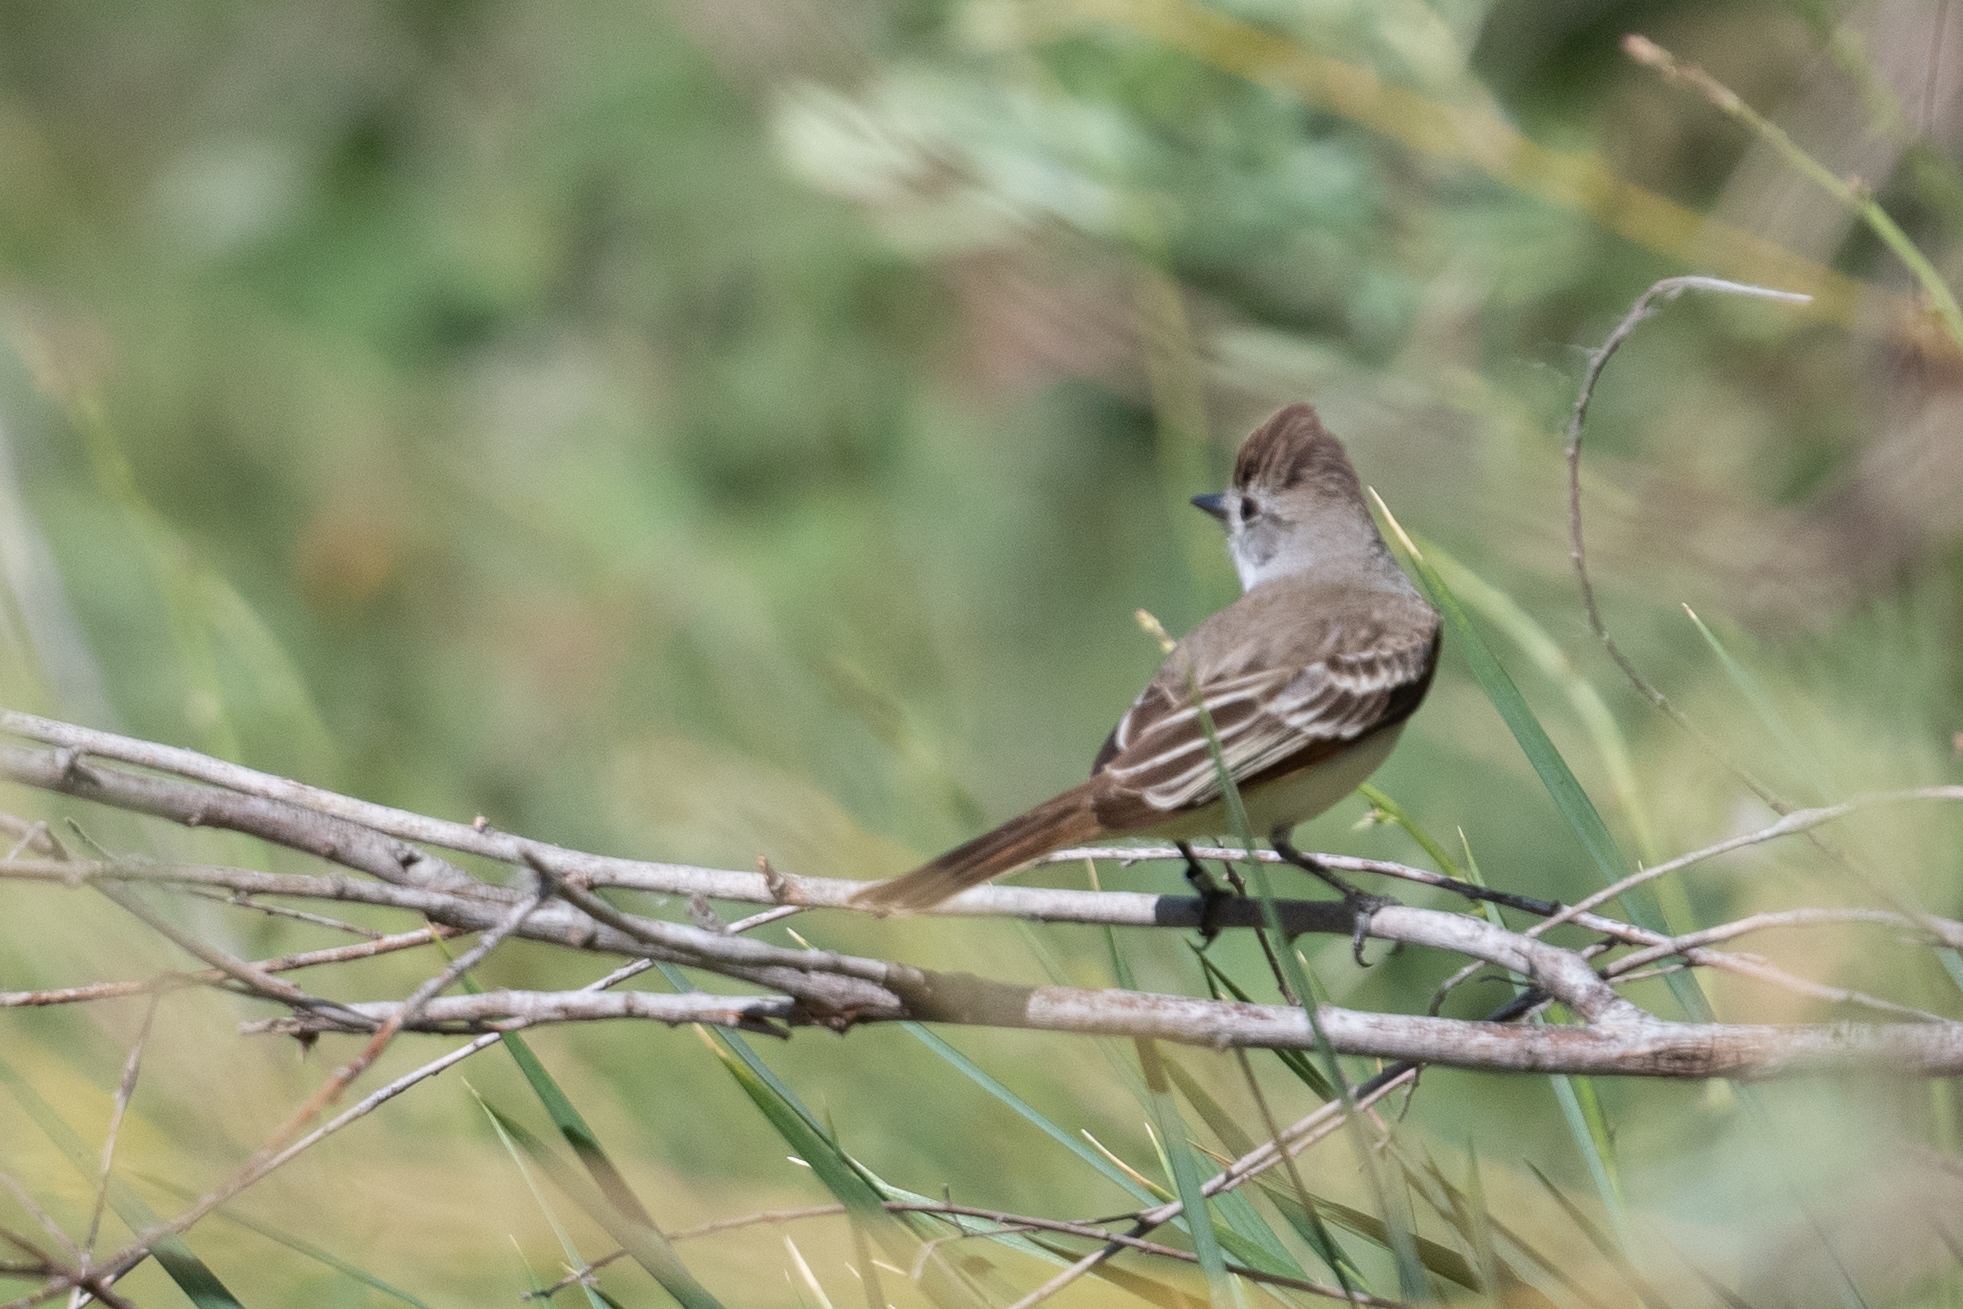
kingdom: Animalia
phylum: Chordata
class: Aves
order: Passeriformes
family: Tyrannidae
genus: Myiarchus
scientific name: Myiarchus cinerascens
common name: Ash-throated flycatcher
